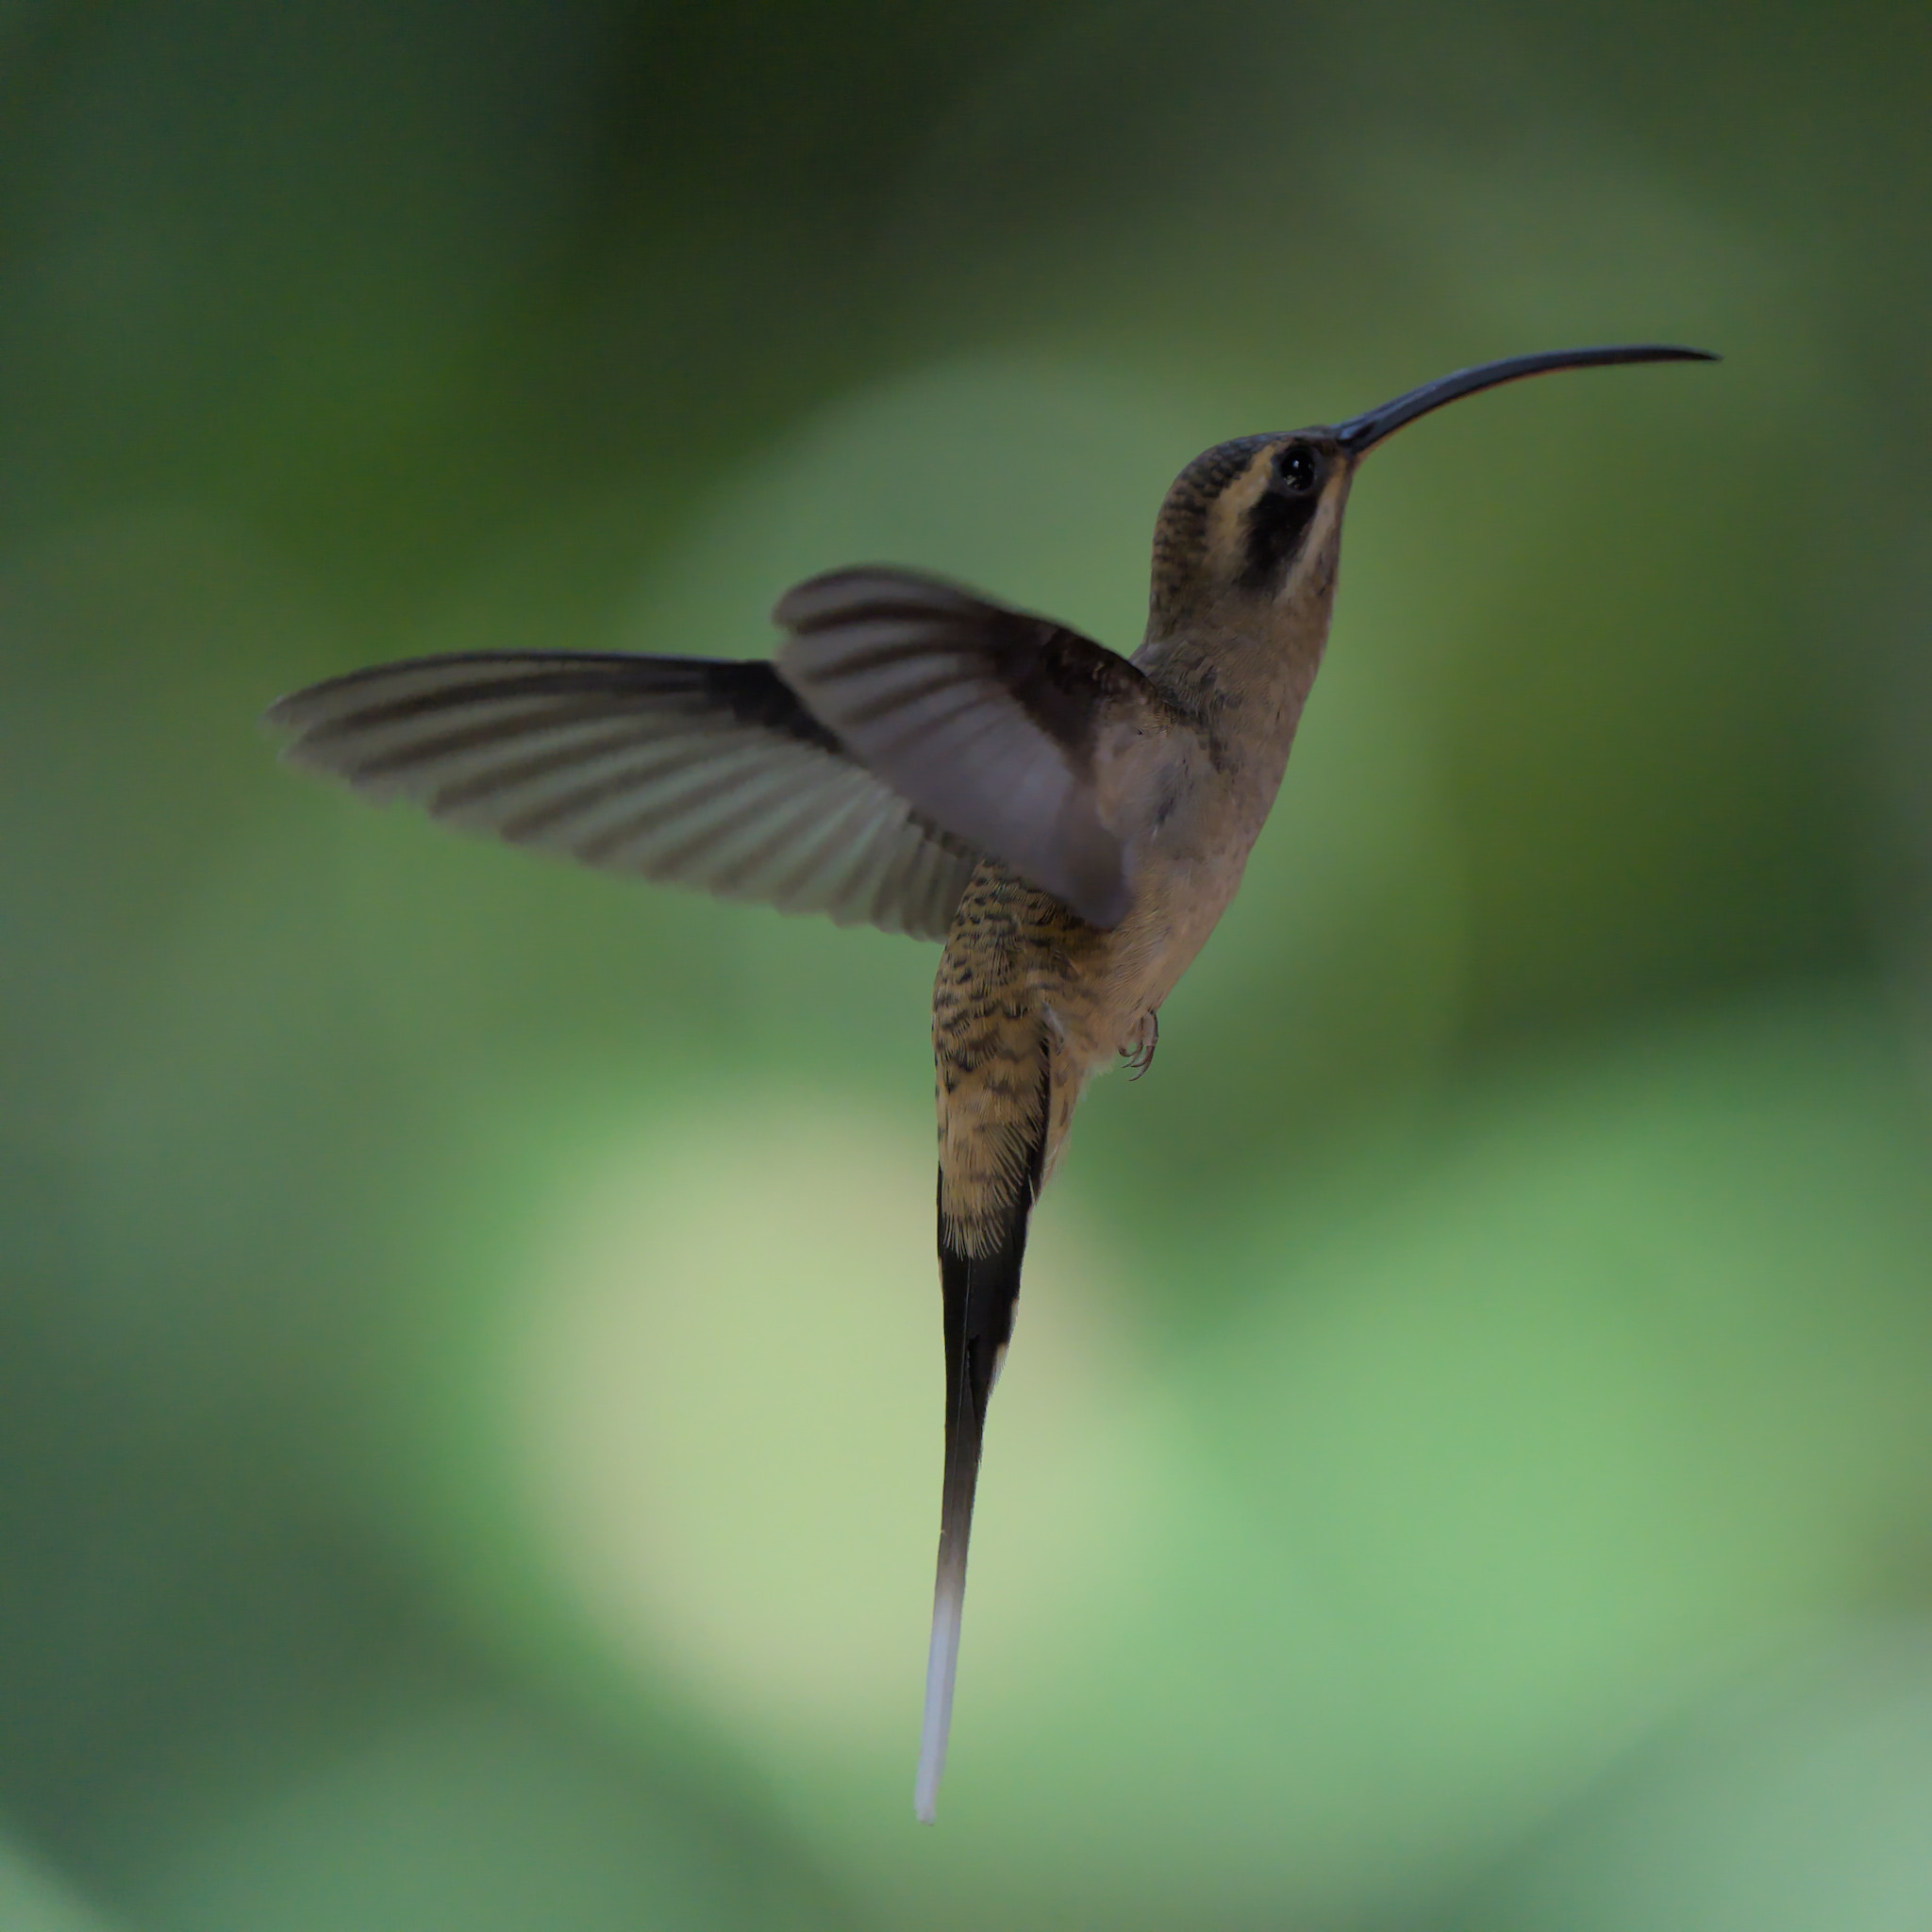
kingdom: Animalia
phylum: Chordata
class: Aves
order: Apodiformes
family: Trochilidae
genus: Phaethornis
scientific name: Phaethornis longirostris
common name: Long-billed hermit
